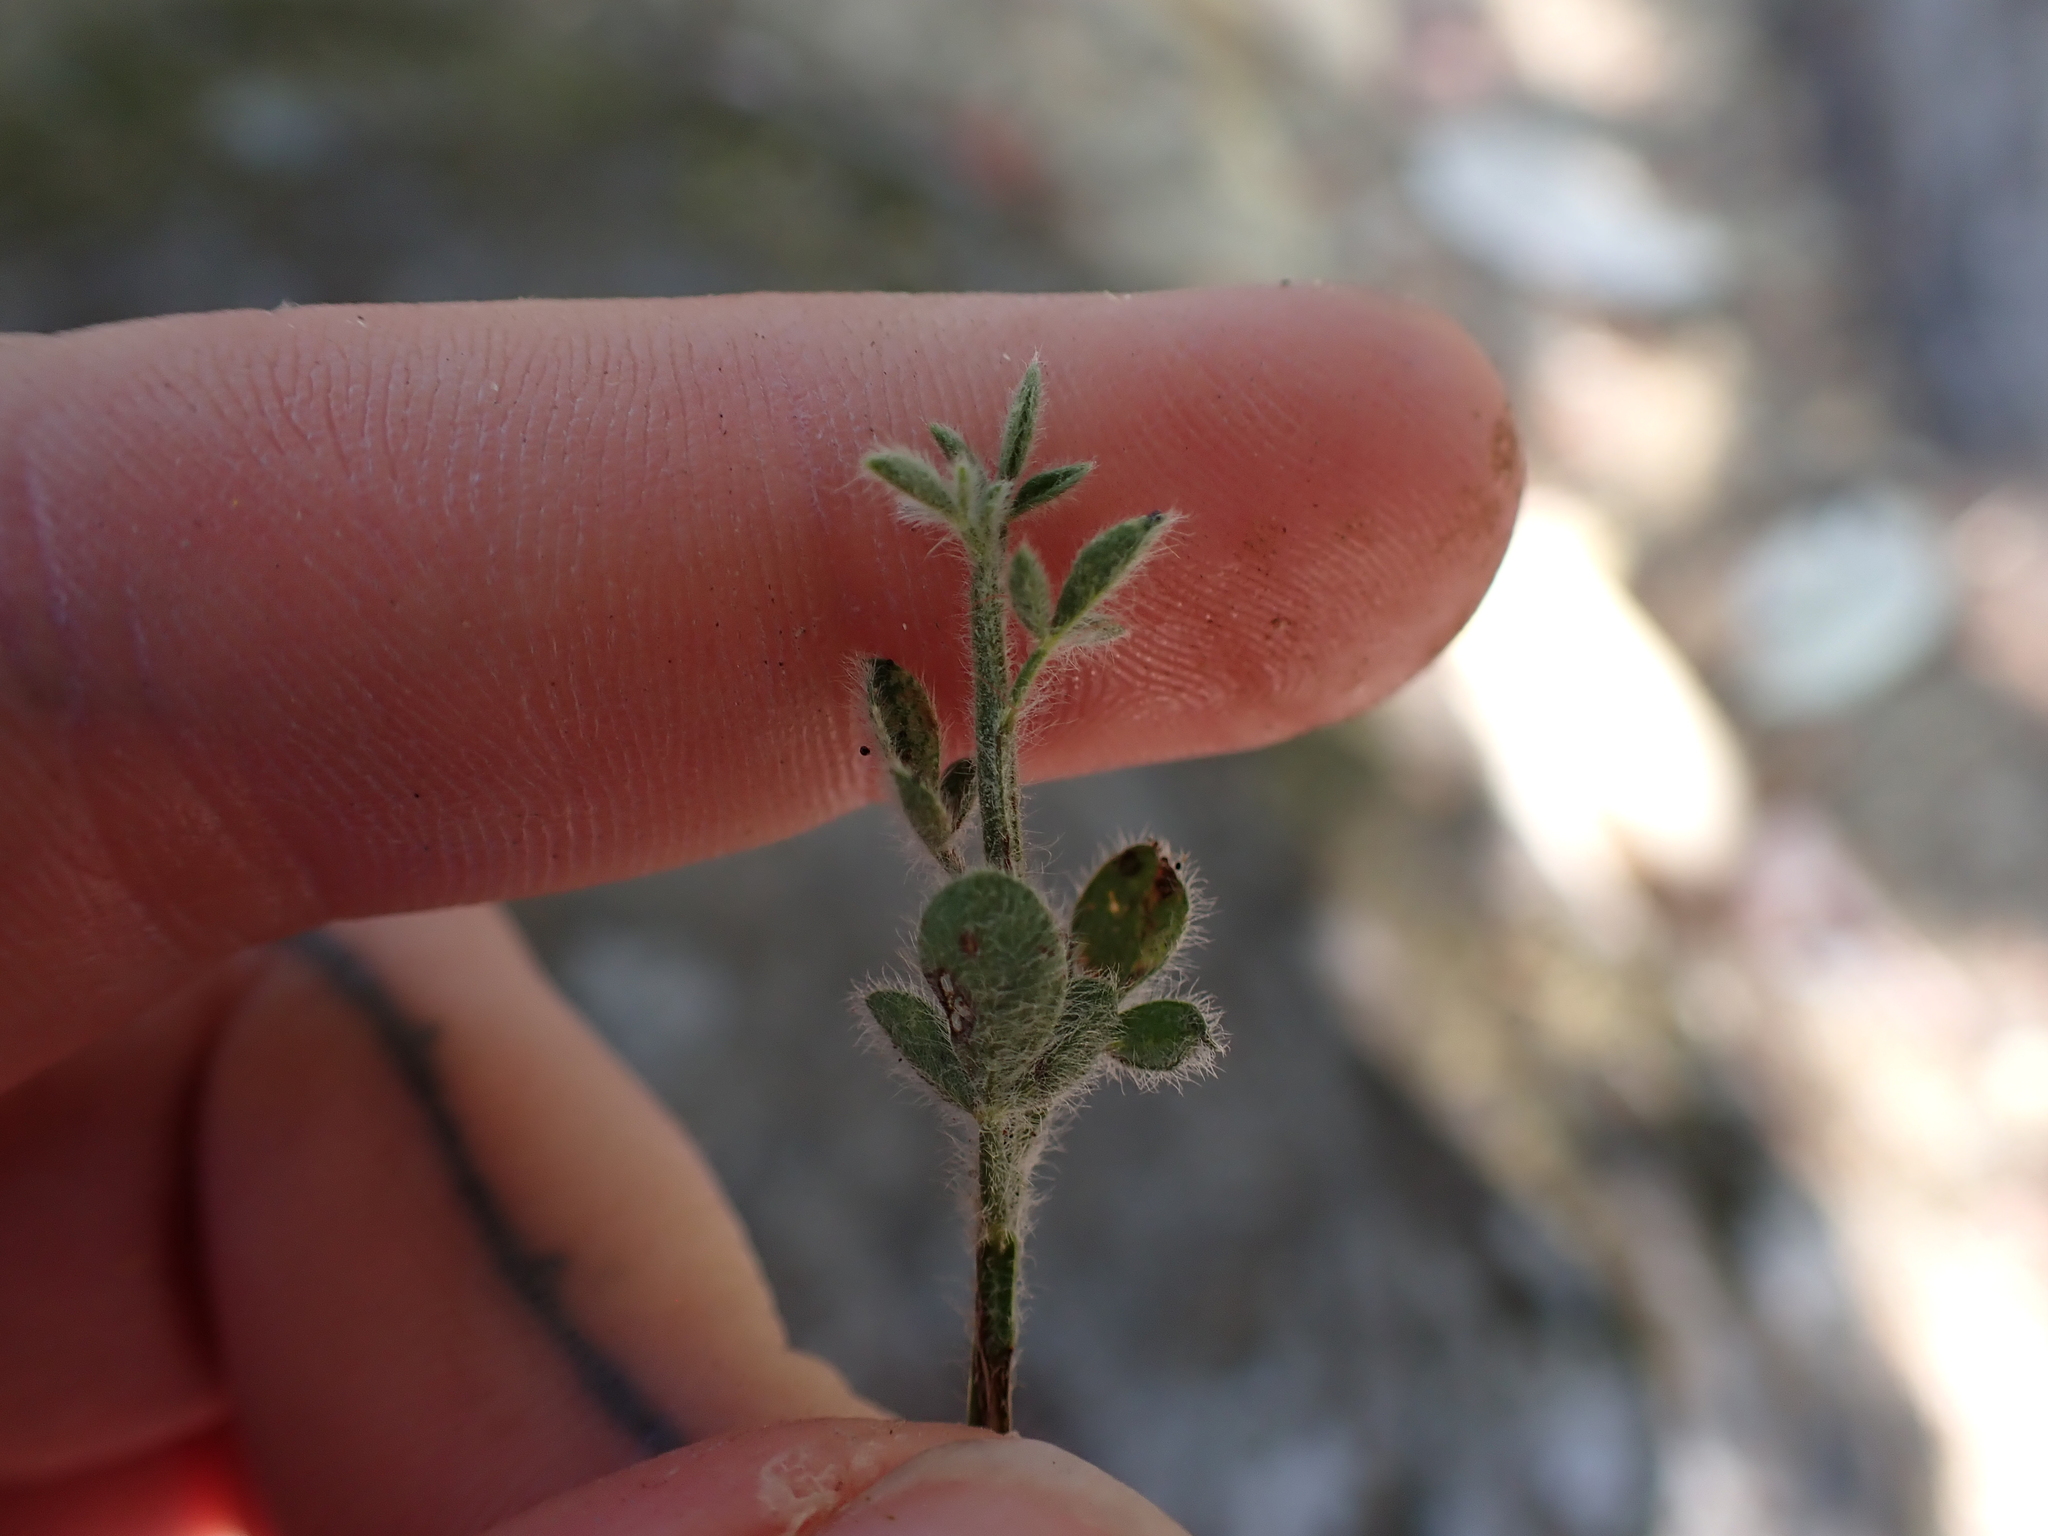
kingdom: Plantae
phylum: Tracheophyta
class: Magnoliopsida
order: Fabales
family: Fabaceae
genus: Cytisus
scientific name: Cytisus scoparius
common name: Scotch broom
